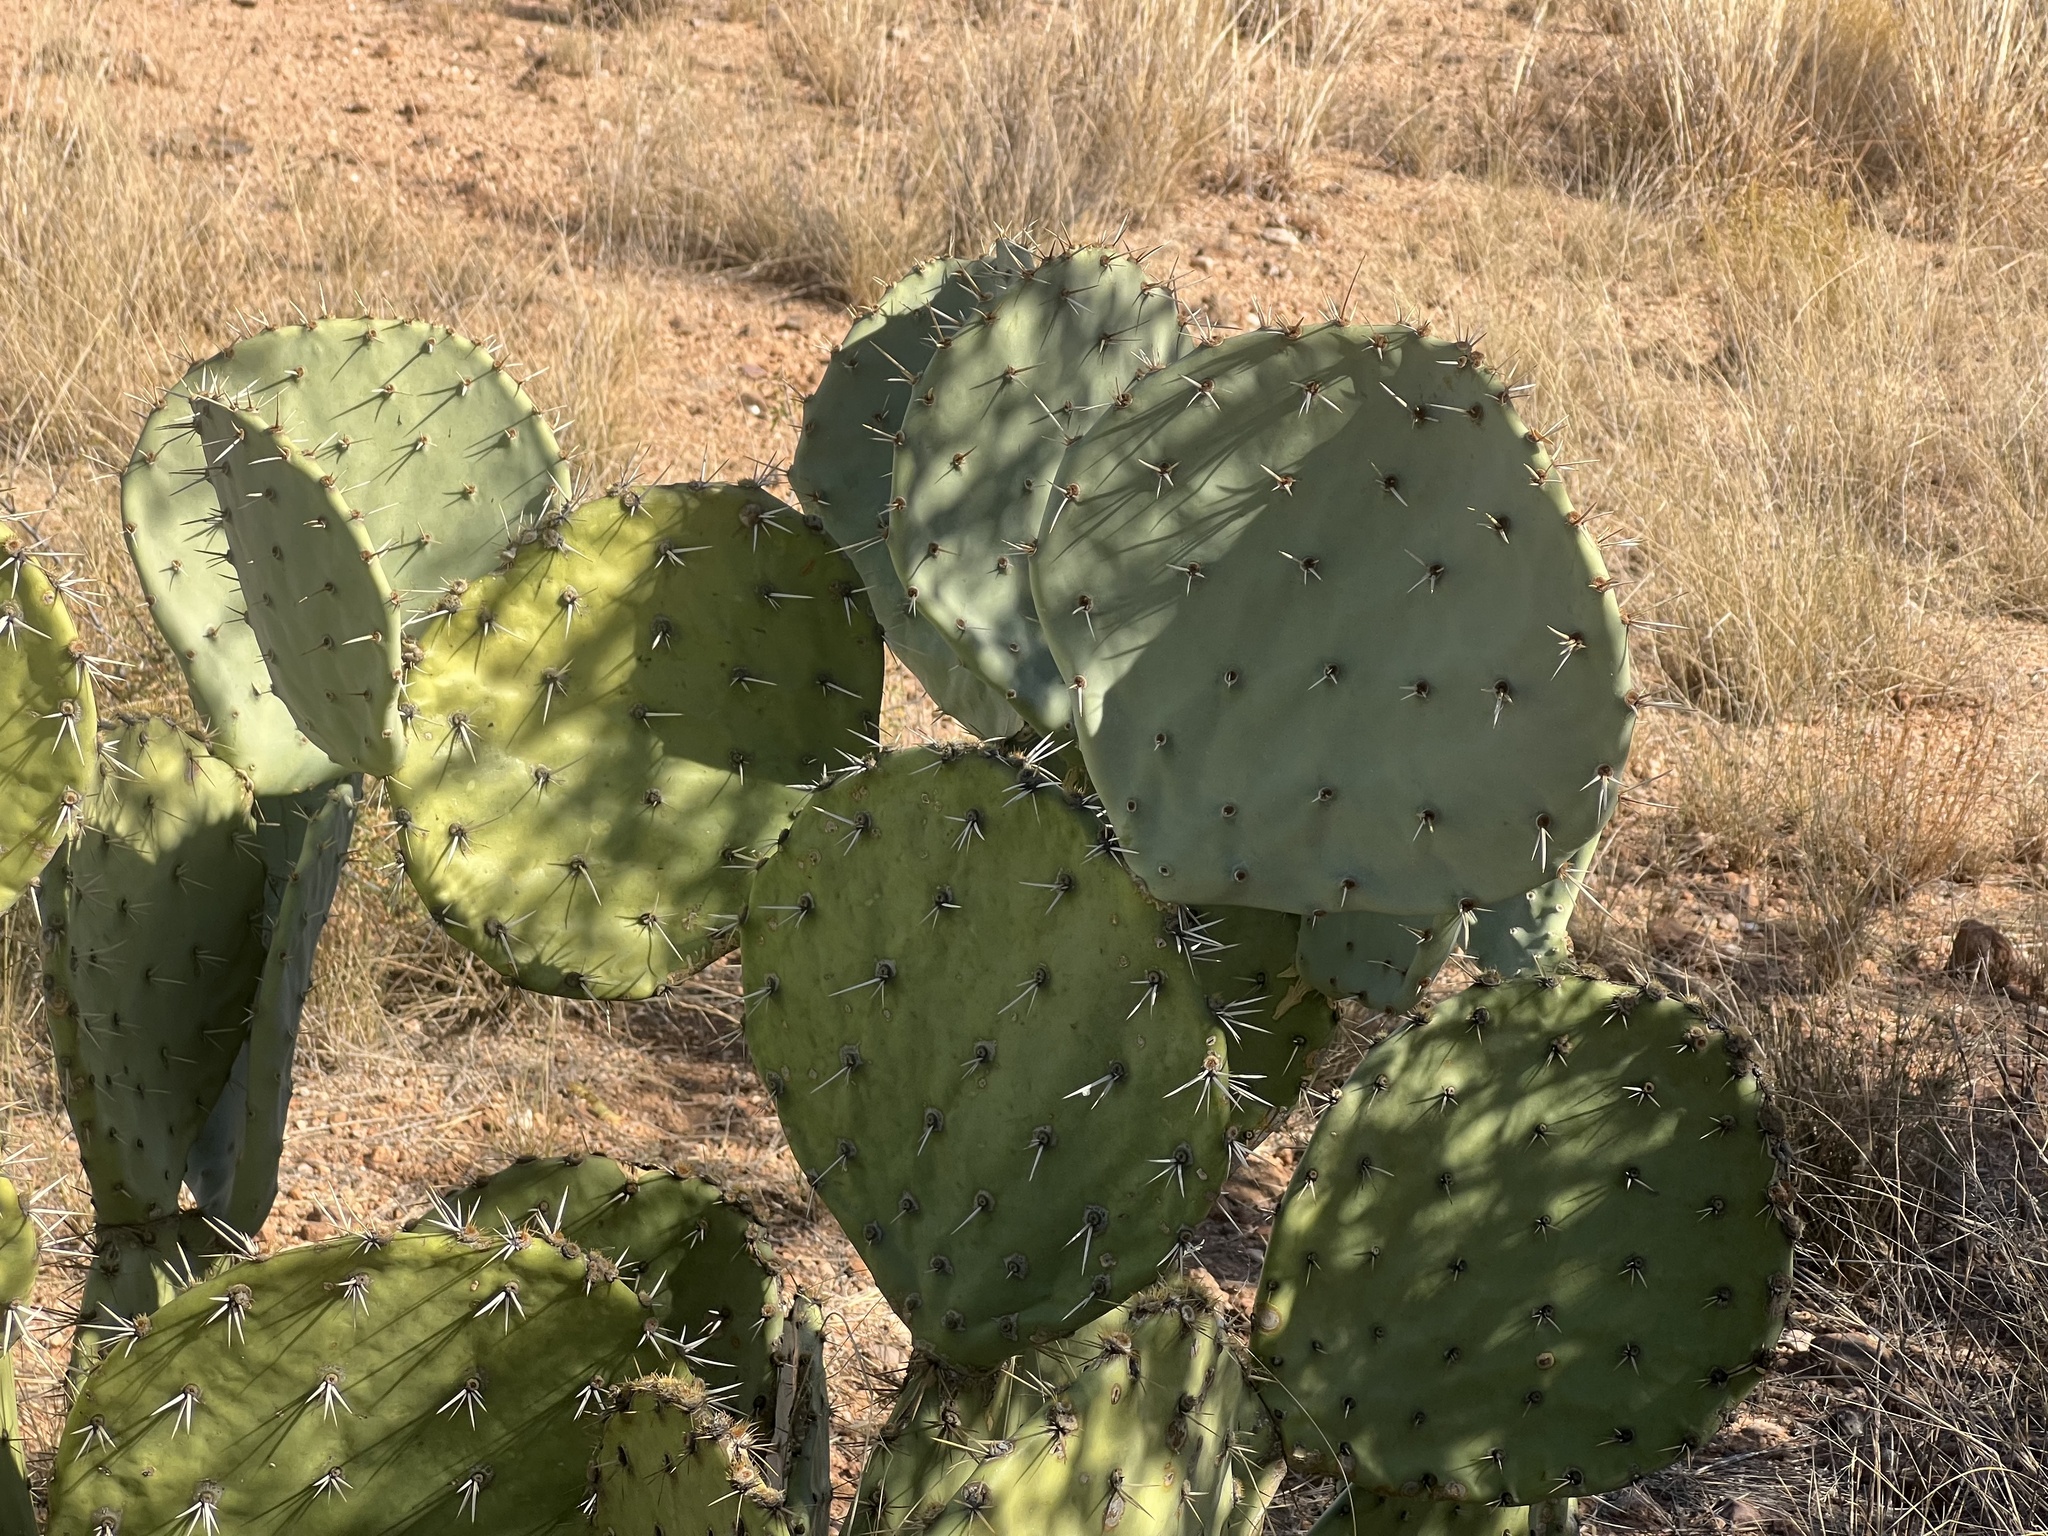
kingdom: Plantae
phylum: Tracheophyta
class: Magnoliopsida
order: Caryophyllales
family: Cactaceae
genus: Opuntia
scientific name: Opuntia engelmannii
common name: Cactus-apple
